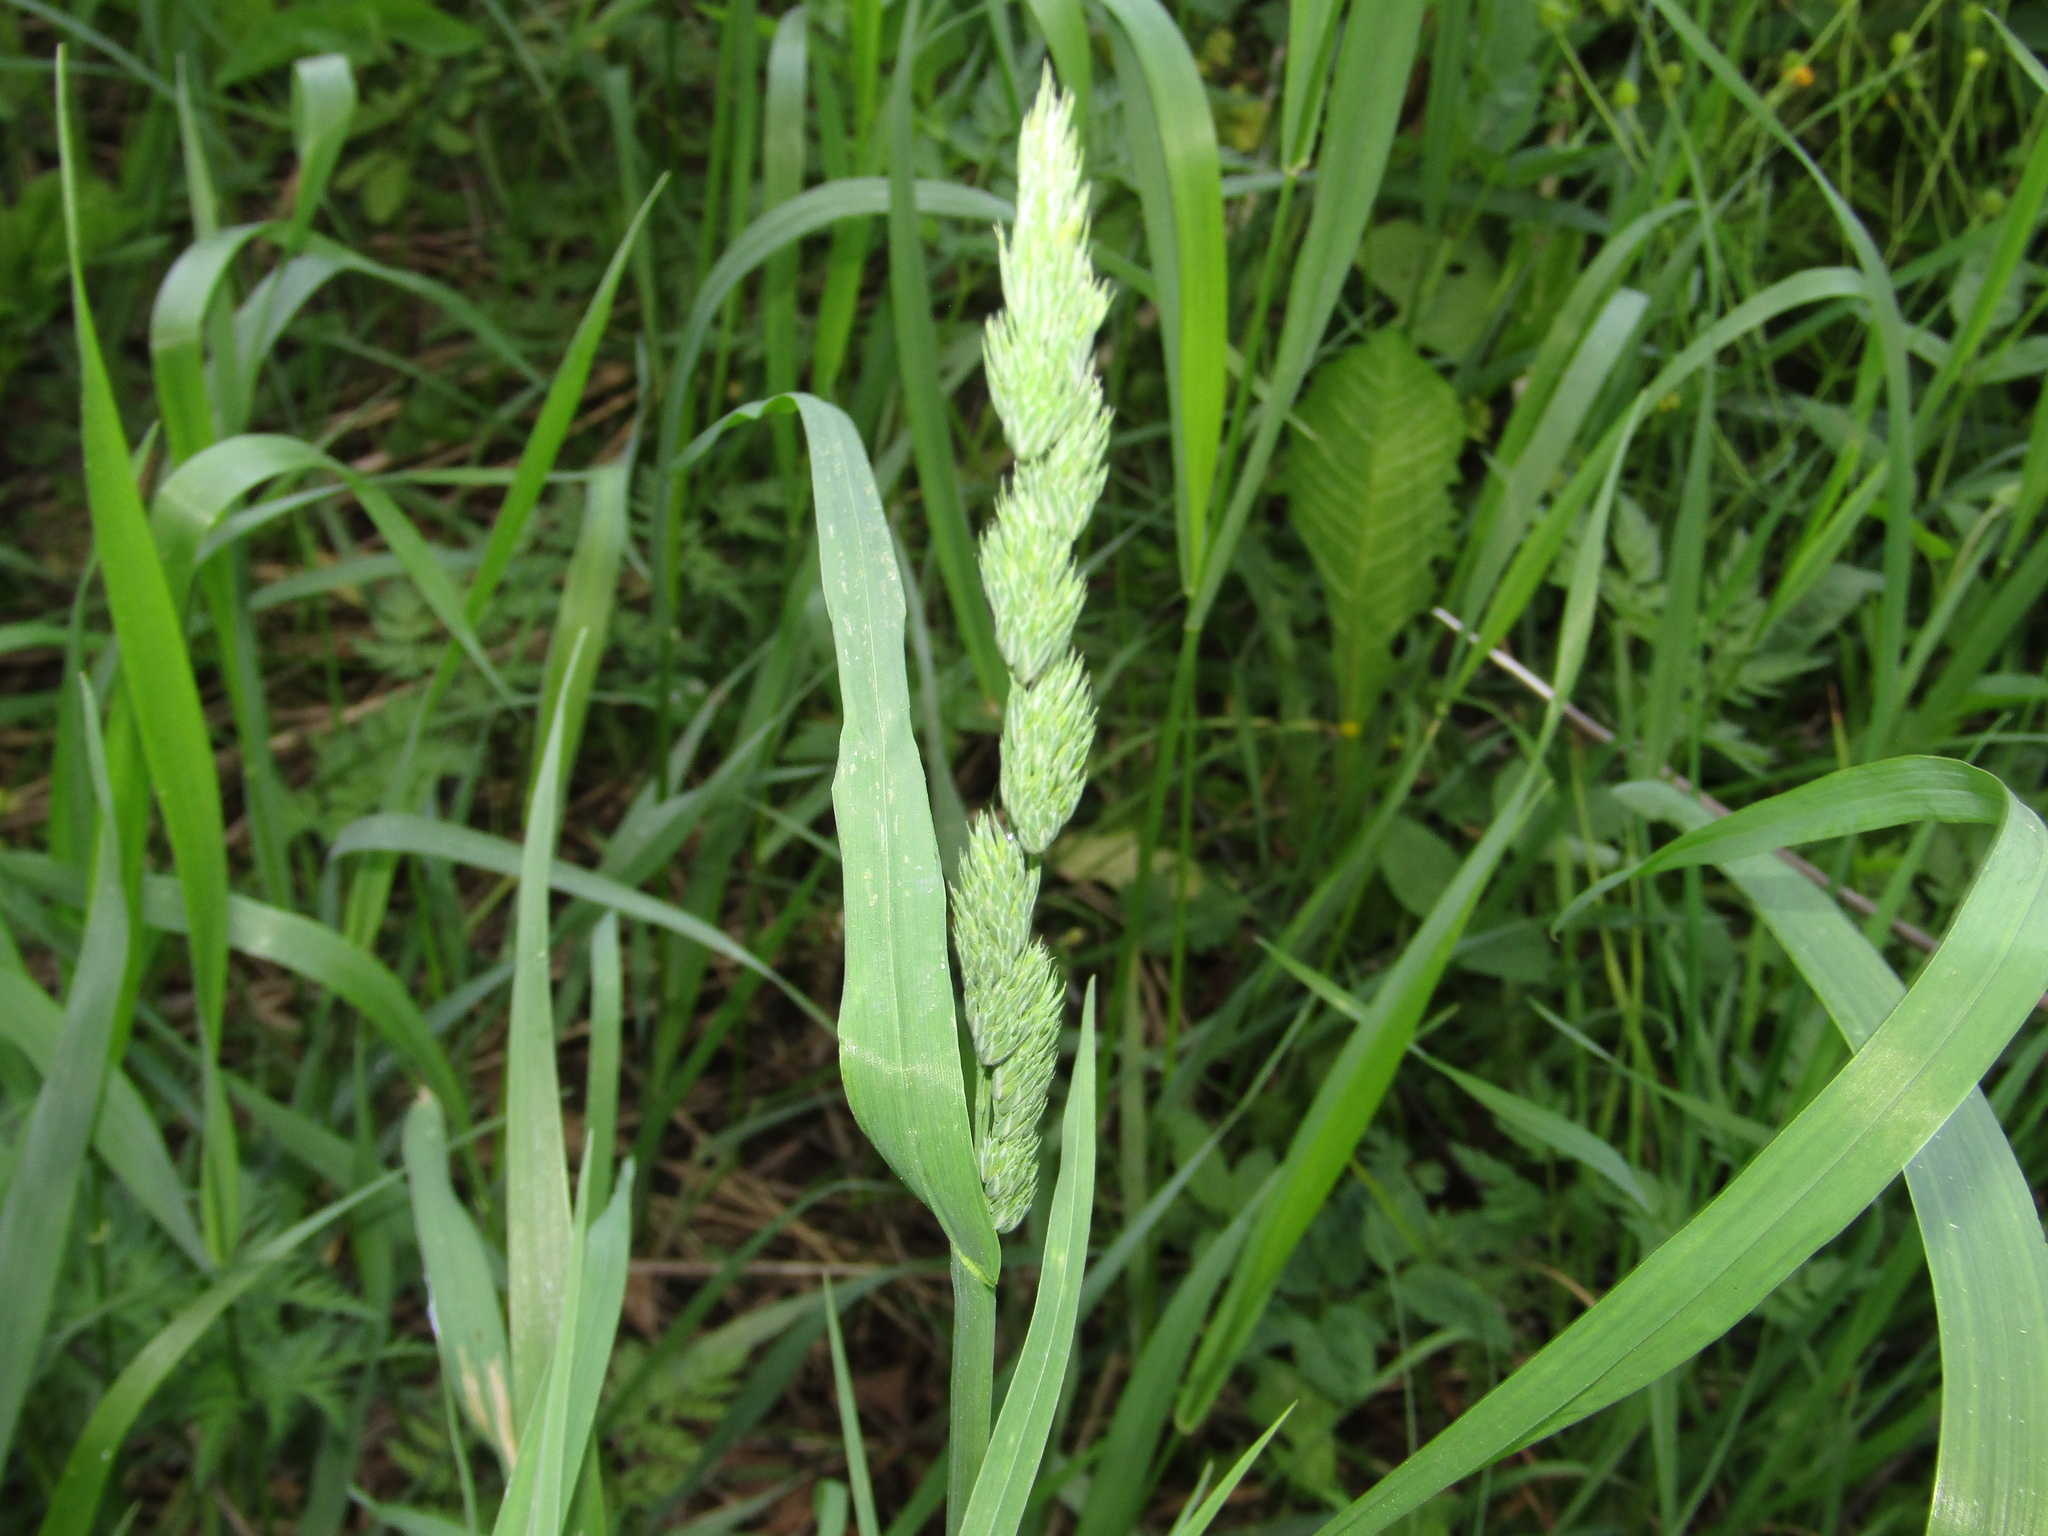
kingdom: Plantae
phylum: Tracheophyta
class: Liliopsida
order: Poales
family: Poaceae
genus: Dactylis
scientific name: Dactylis glomerata
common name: Orchardgrass
